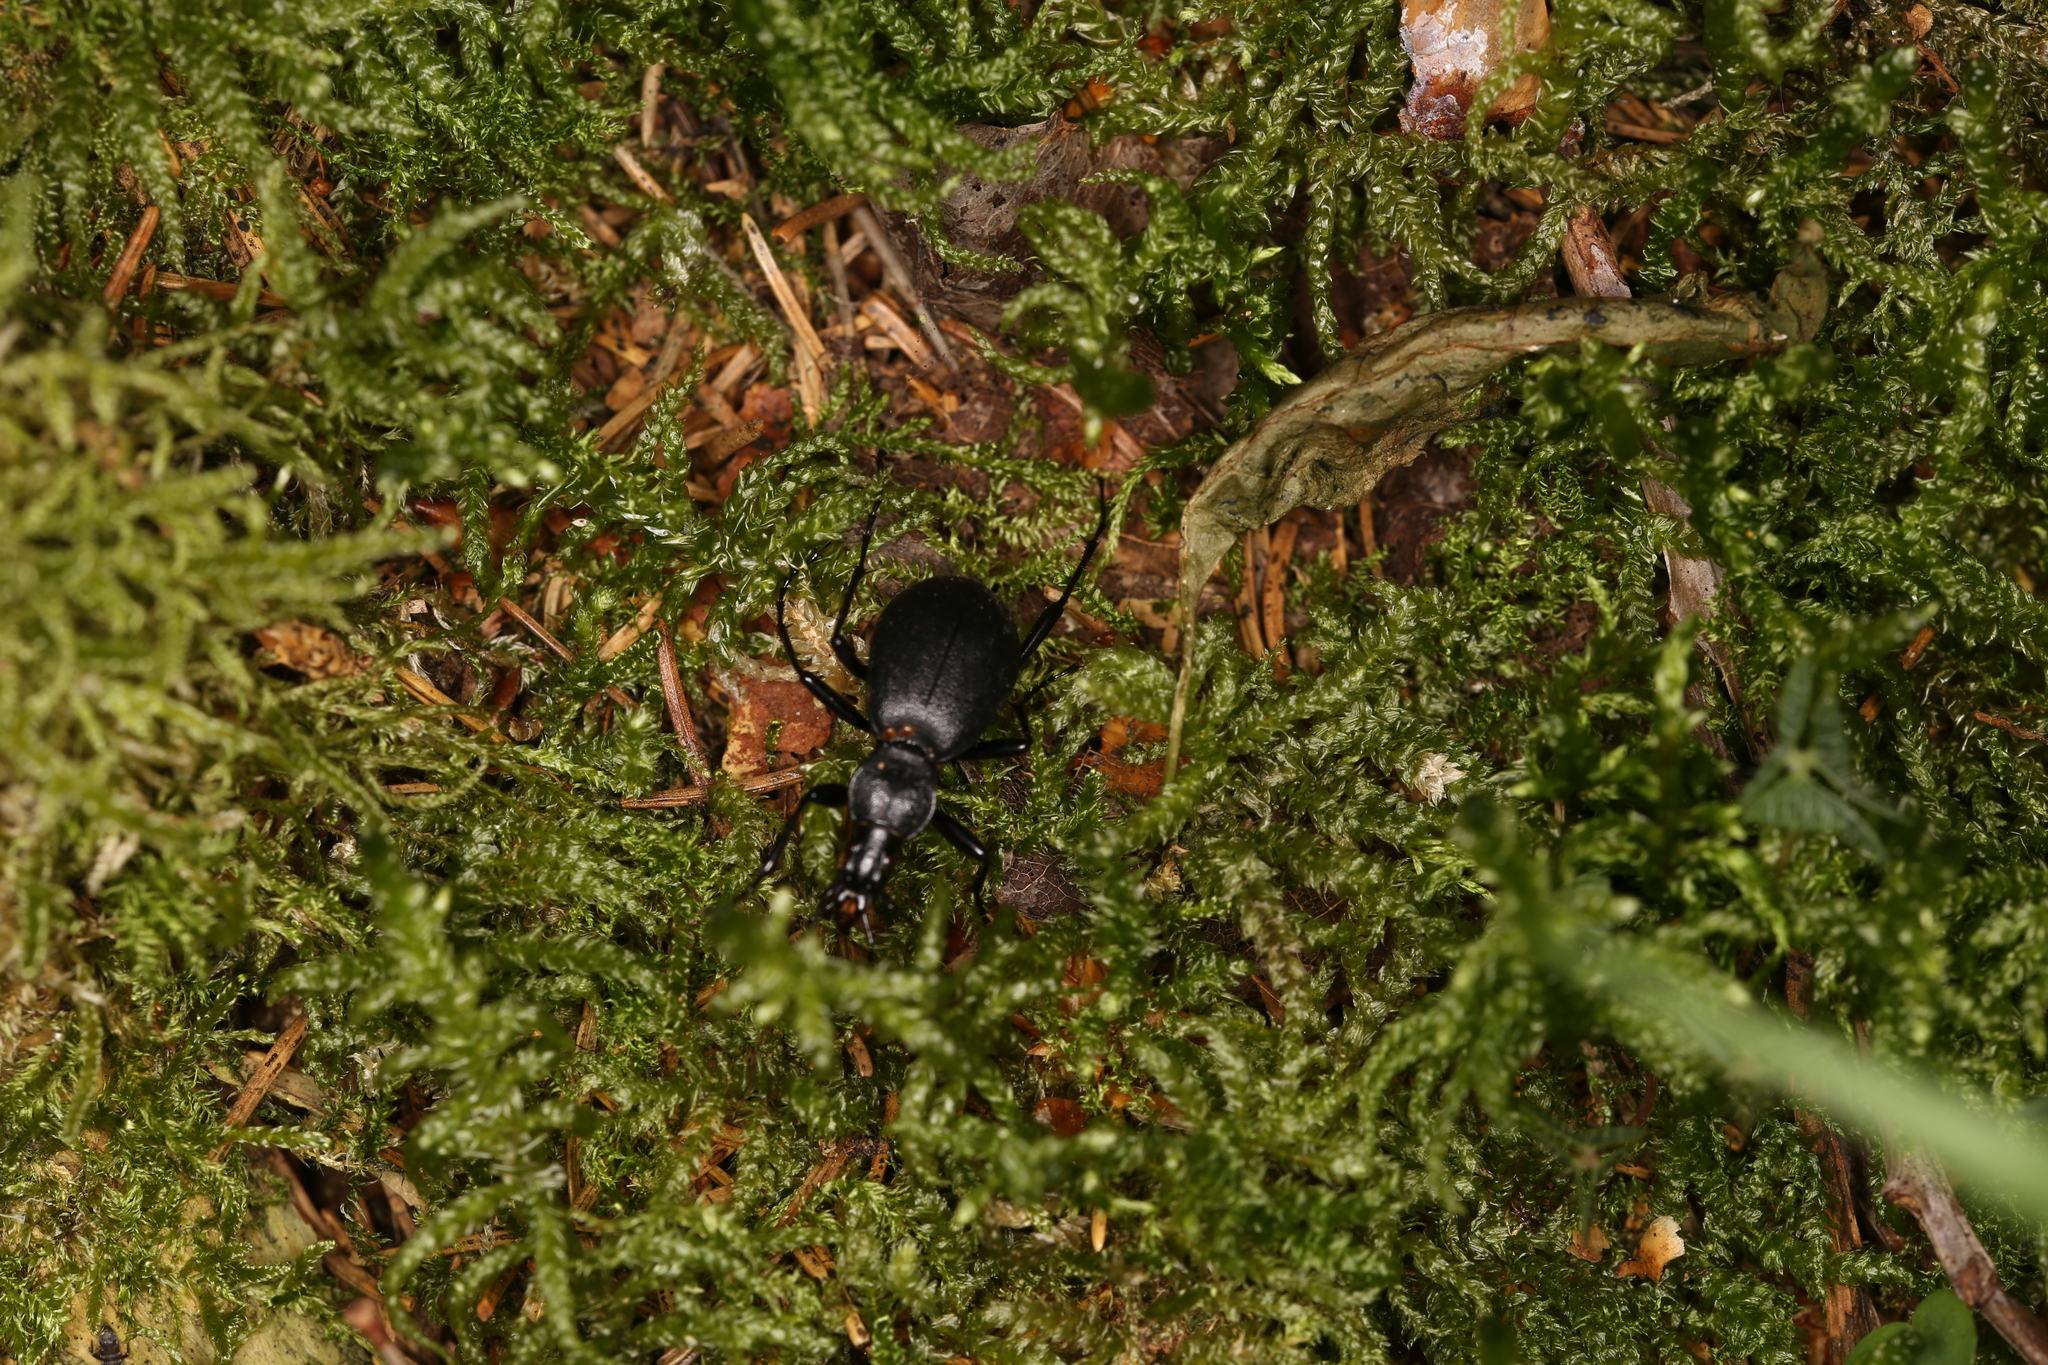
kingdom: Animalia
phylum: Arthropoda
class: Insecta
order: Coleoptera
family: Carabidae
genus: Cychrus
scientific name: Cychrus caraboides
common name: Snail hunter
